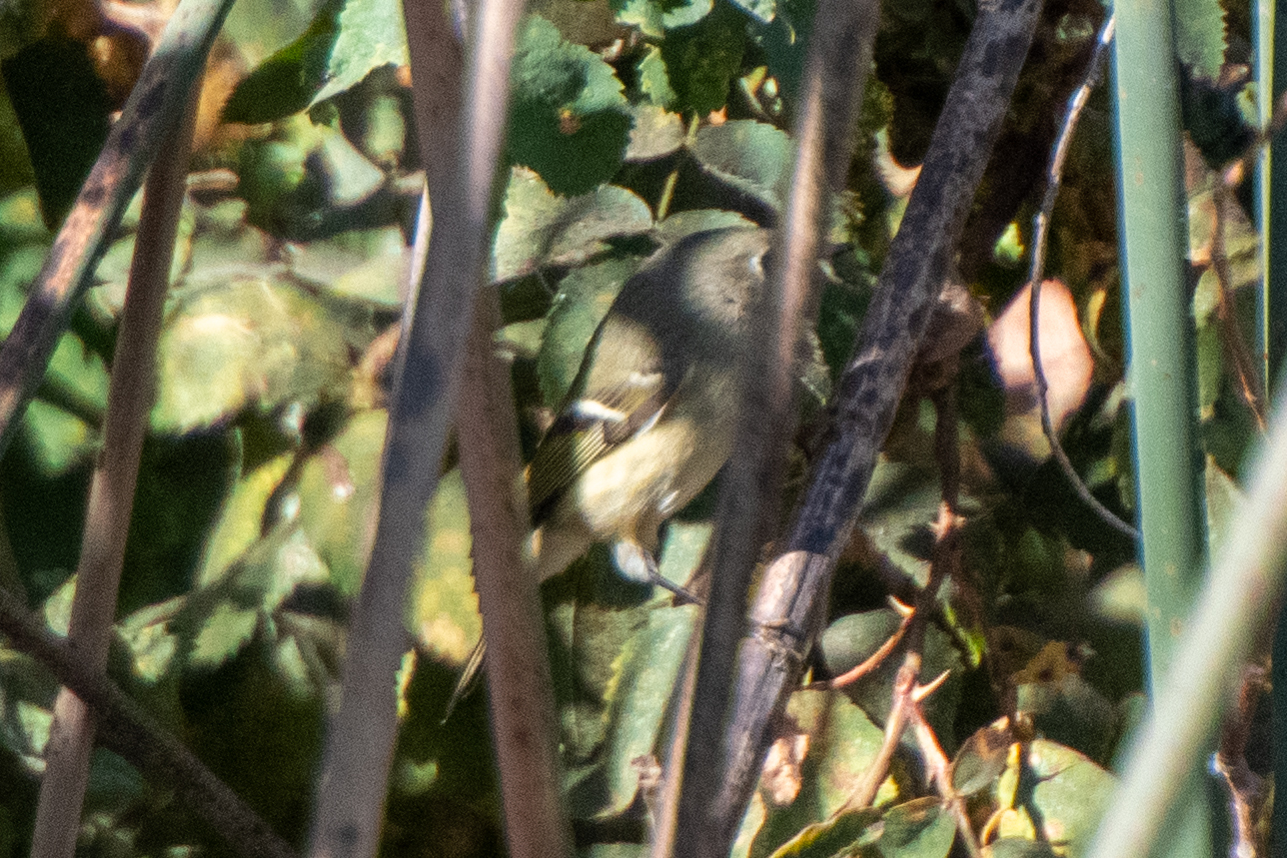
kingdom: Animalia
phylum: Chordata
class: Aves
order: Passeriformes
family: Regulidae
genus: Regulus
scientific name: Regulus calendula
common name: Ruby-crowned kinglet
